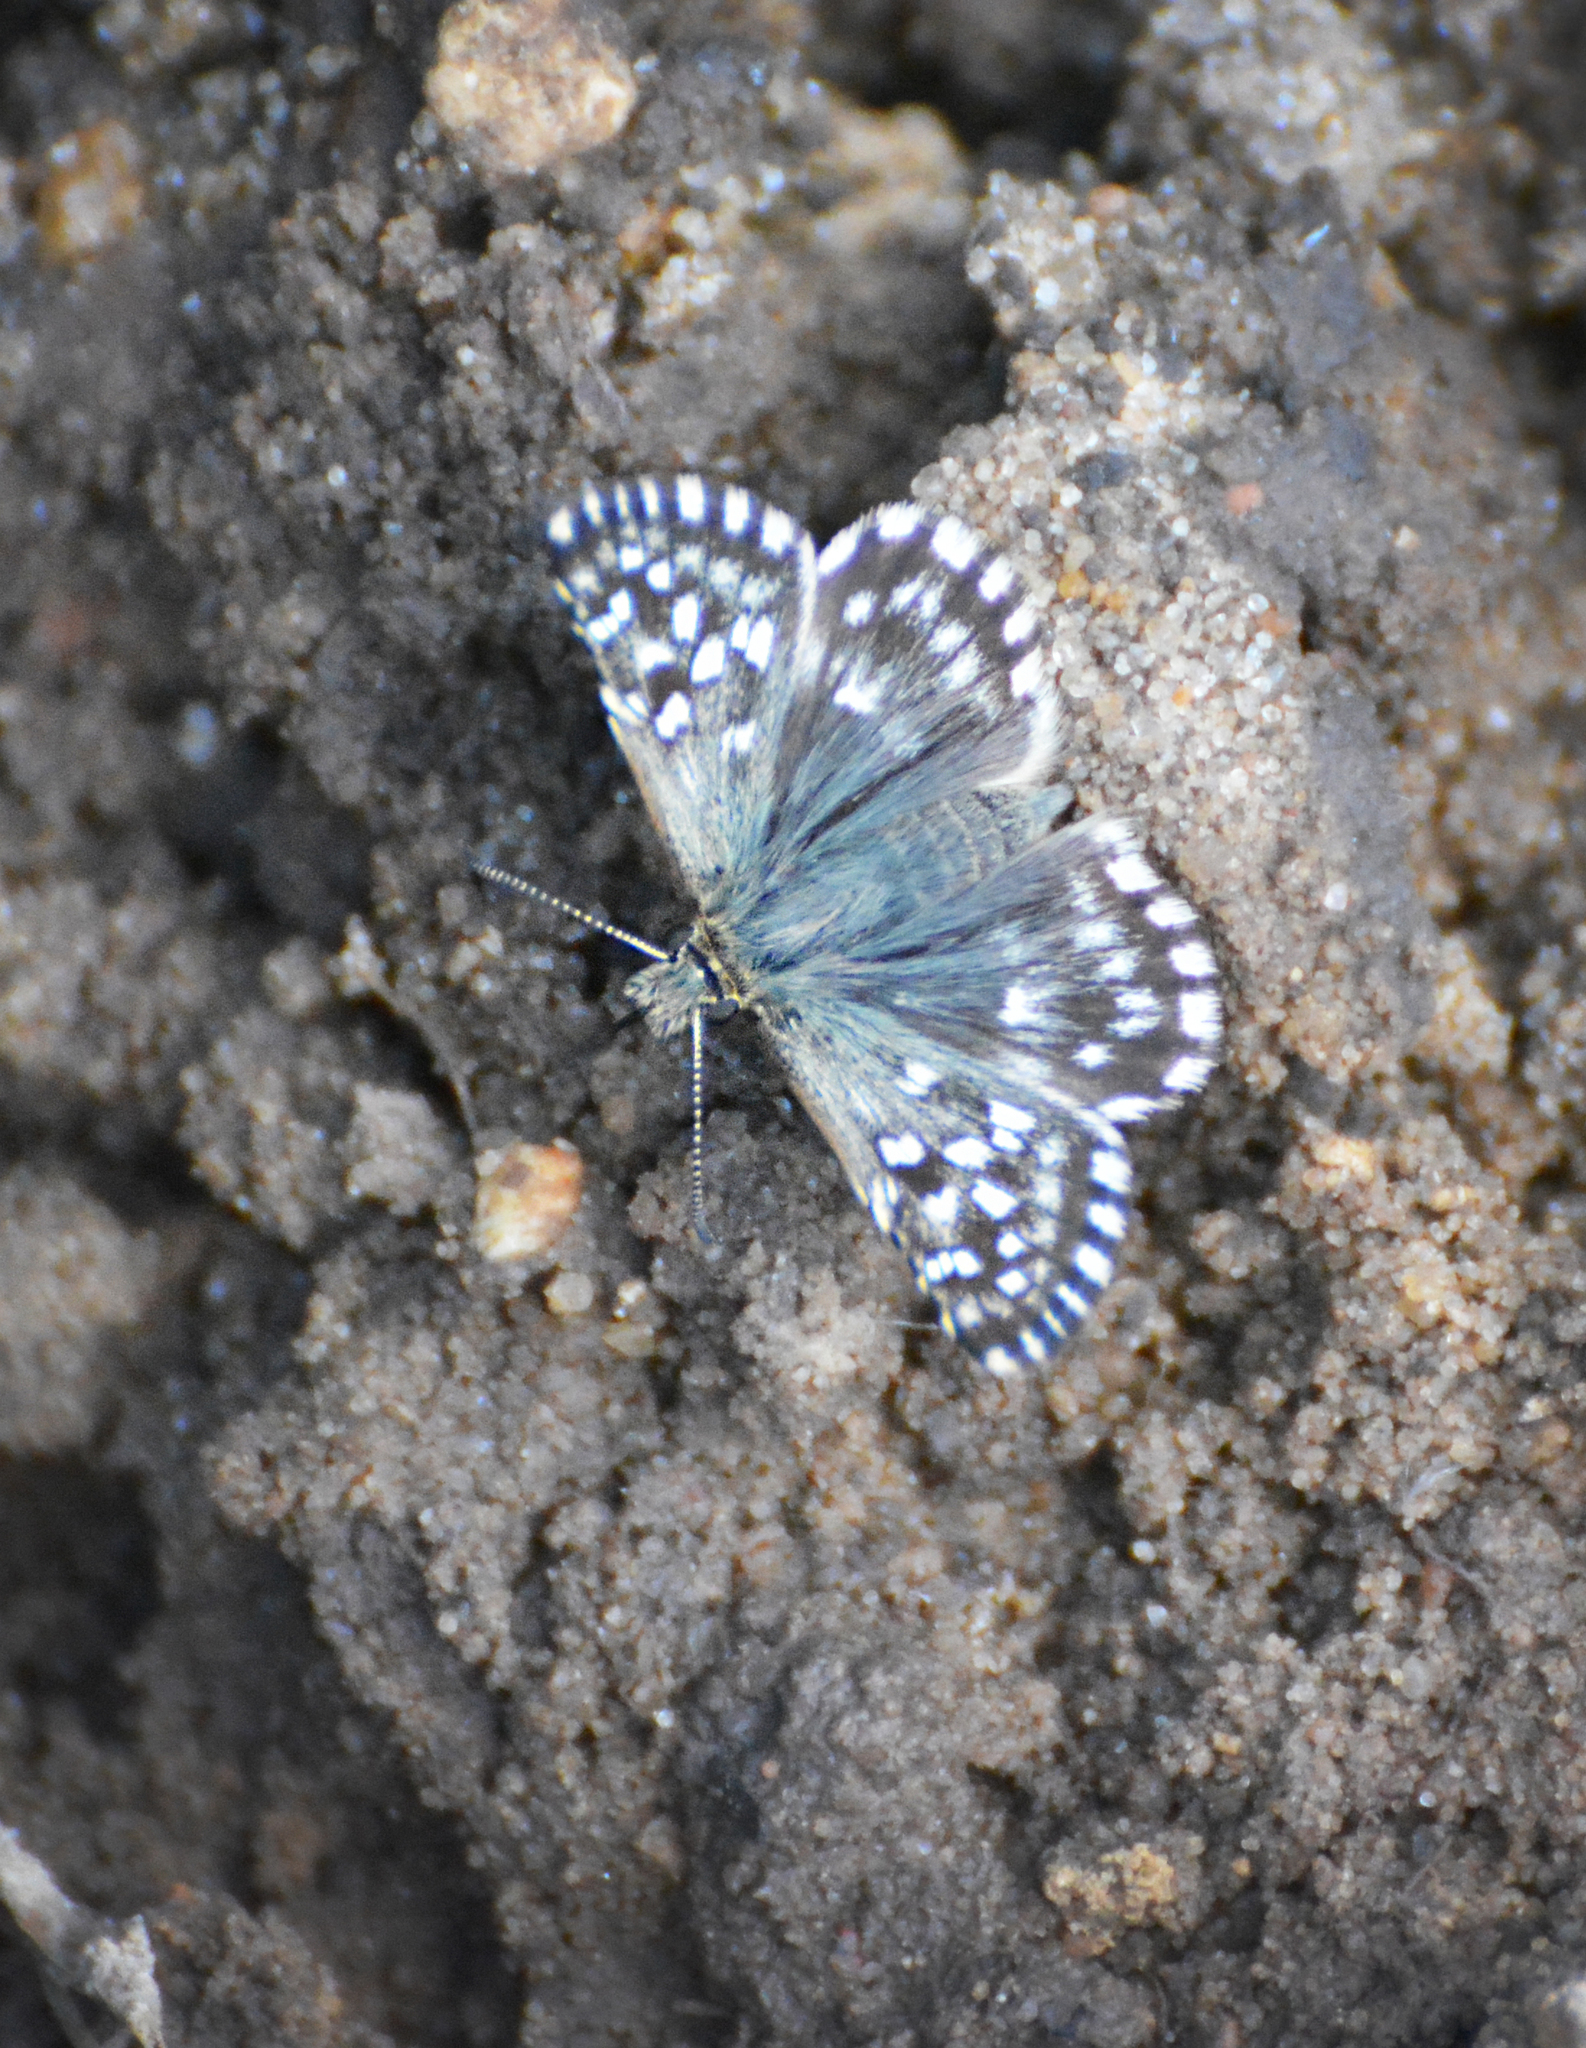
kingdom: Animalia
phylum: Arthropoda
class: Insecta
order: Lepidoptera
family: Hesperiidae
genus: Pyrgus
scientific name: Pyrgus malvae
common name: Grizzled skipper
